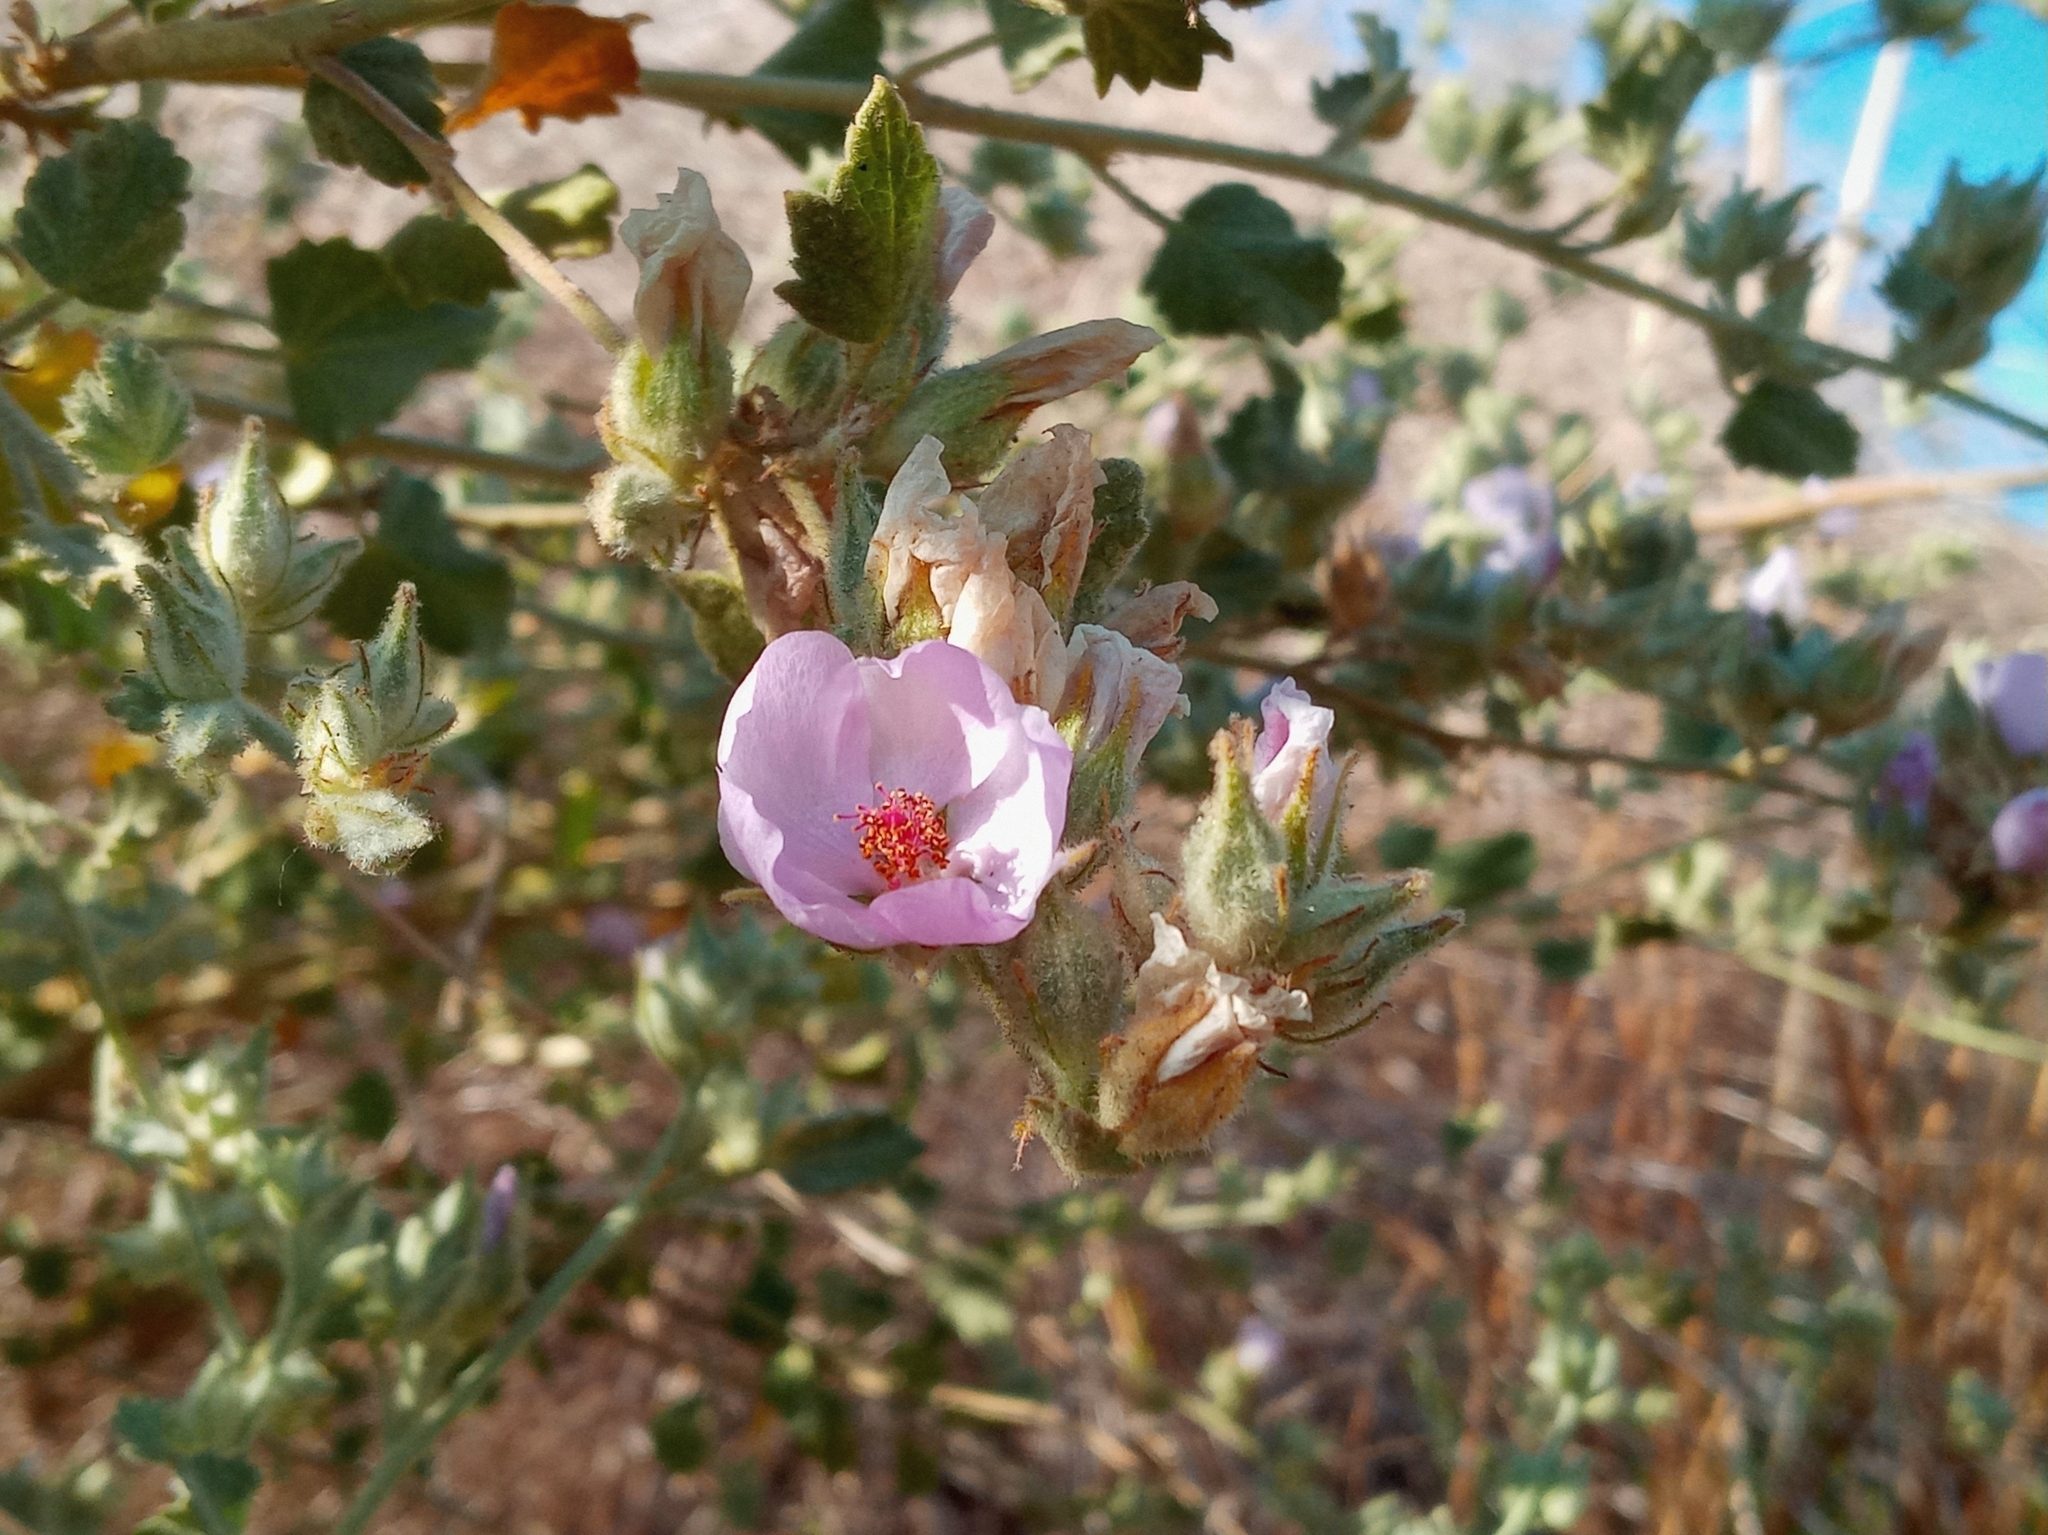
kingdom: Plantae
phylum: Tracheophyta
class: Magnoliopsida
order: Malvales
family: Malvaceae
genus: Malacothamnus
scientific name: Malacothamnus marrubioides
